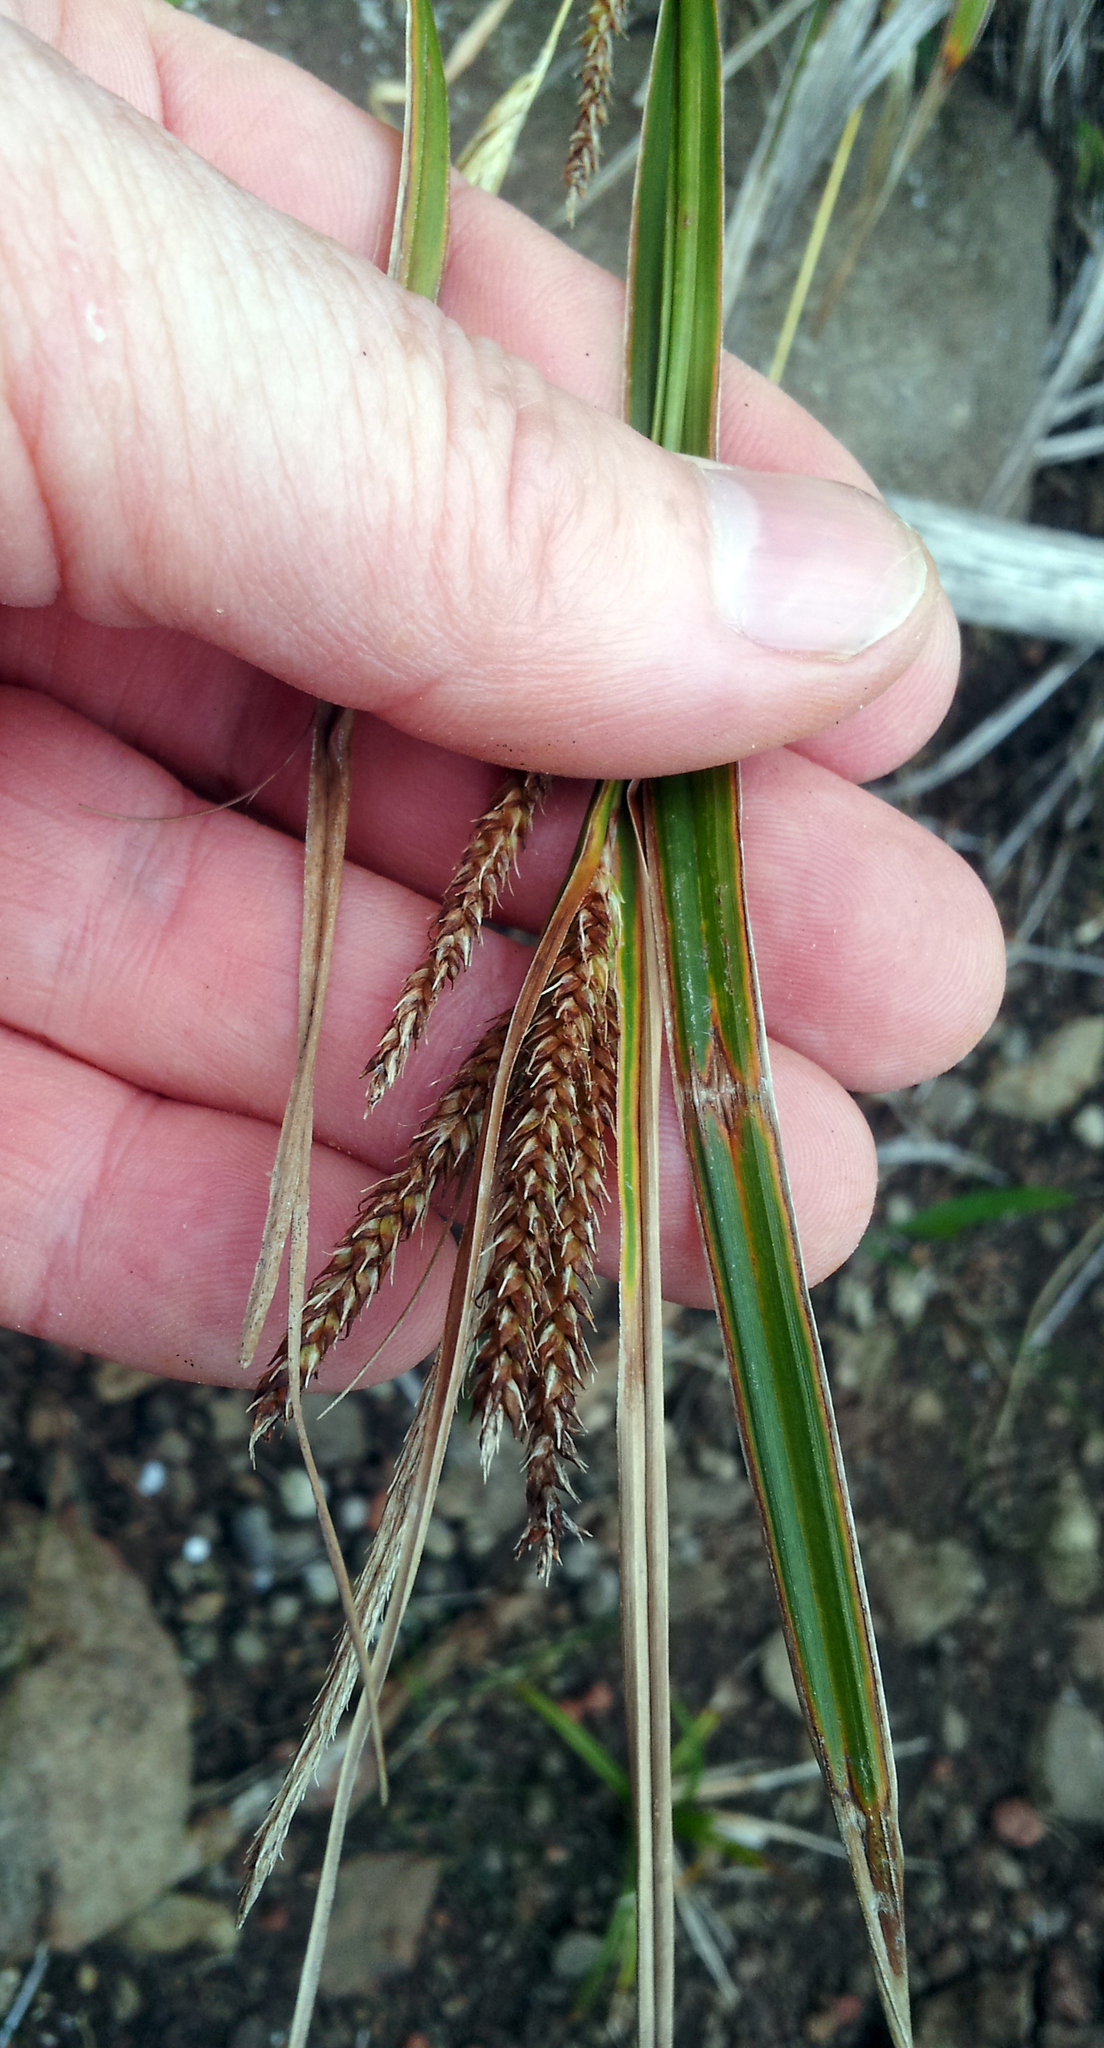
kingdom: Plantae
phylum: Tracheophyta
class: Liliopsida
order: Poales
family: Cyperaceae
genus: Carex
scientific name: Carex spinirostris
